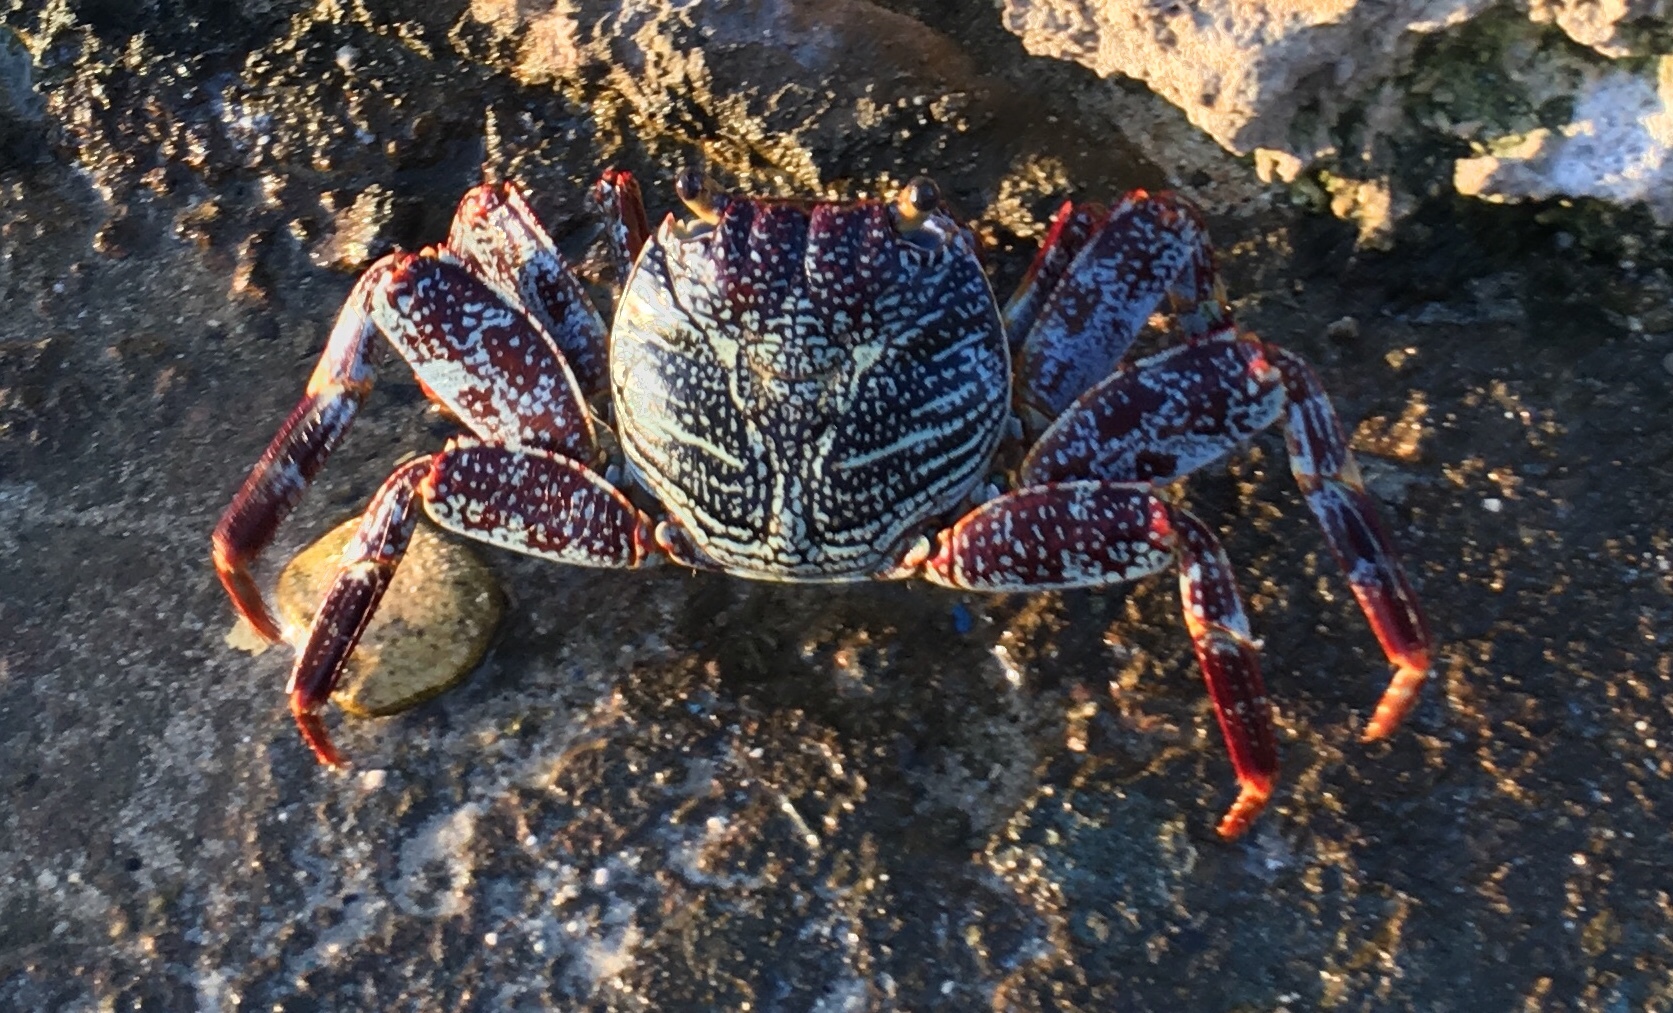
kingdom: Animalia
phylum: Arthropoda
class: Malacostraca
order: Decapoda
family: Grapsidae
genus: Grapsus
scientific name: Grapsus grapsus
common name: Sally lightfoot
